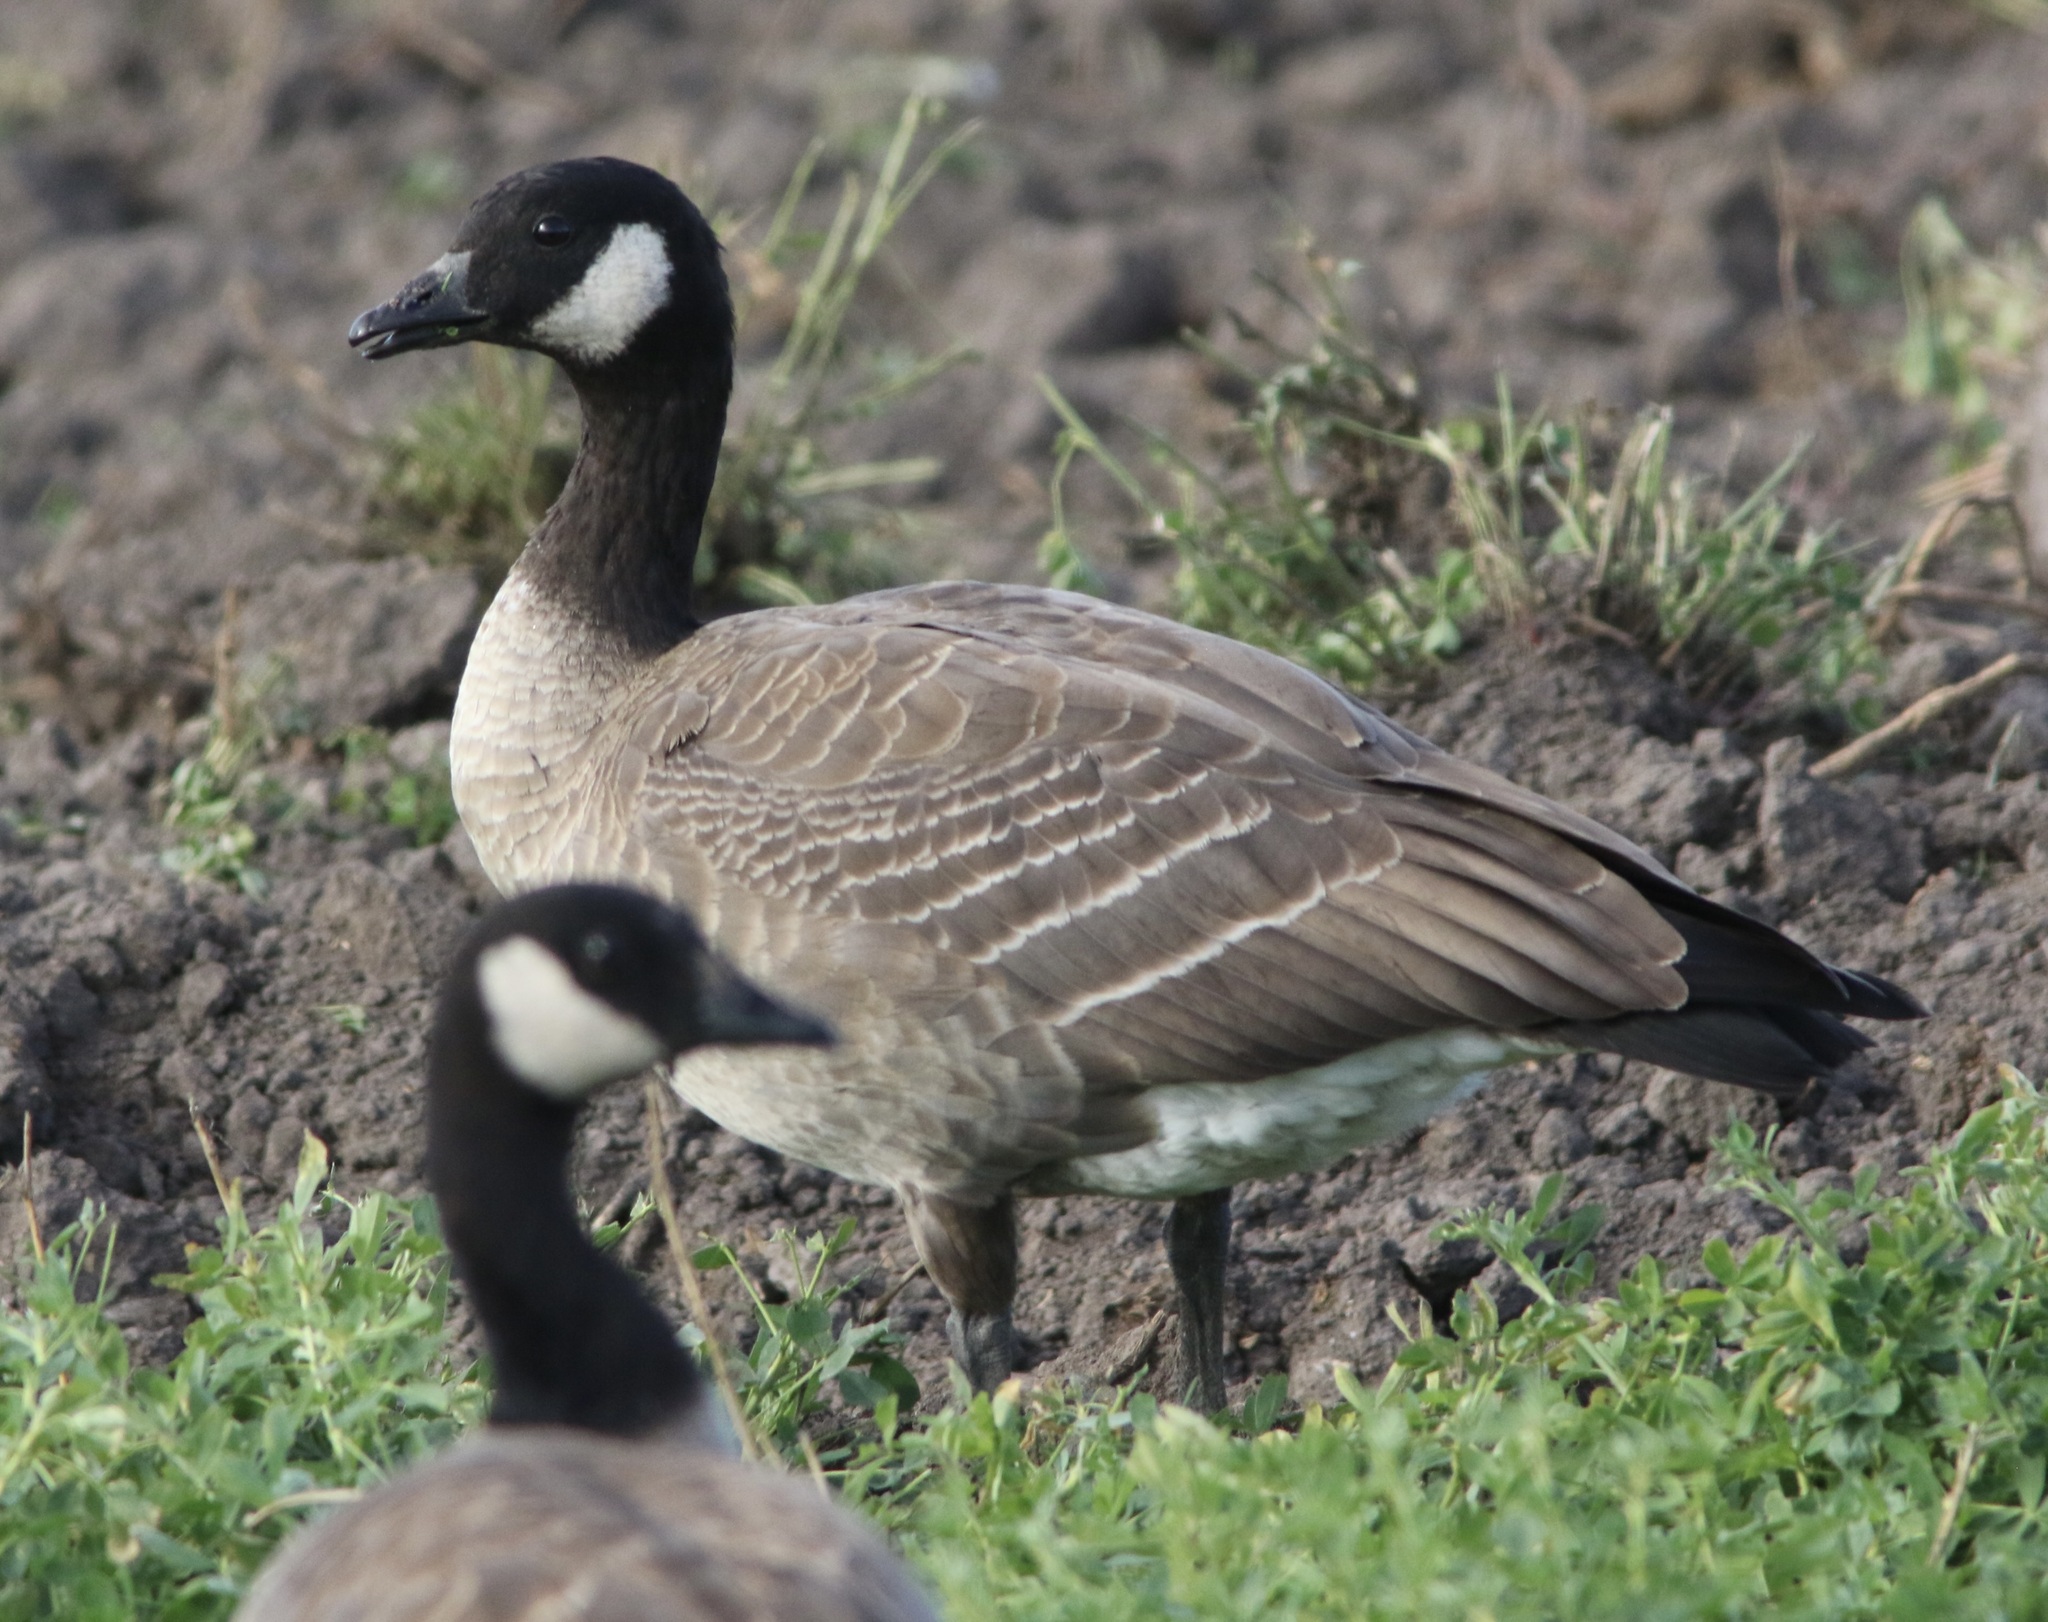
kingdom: Animalia
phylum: Chordata
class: Aves
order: Anseriformes
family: Anatidae
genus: Branta
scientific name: Branta hutchinsii
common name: Cackling goose
